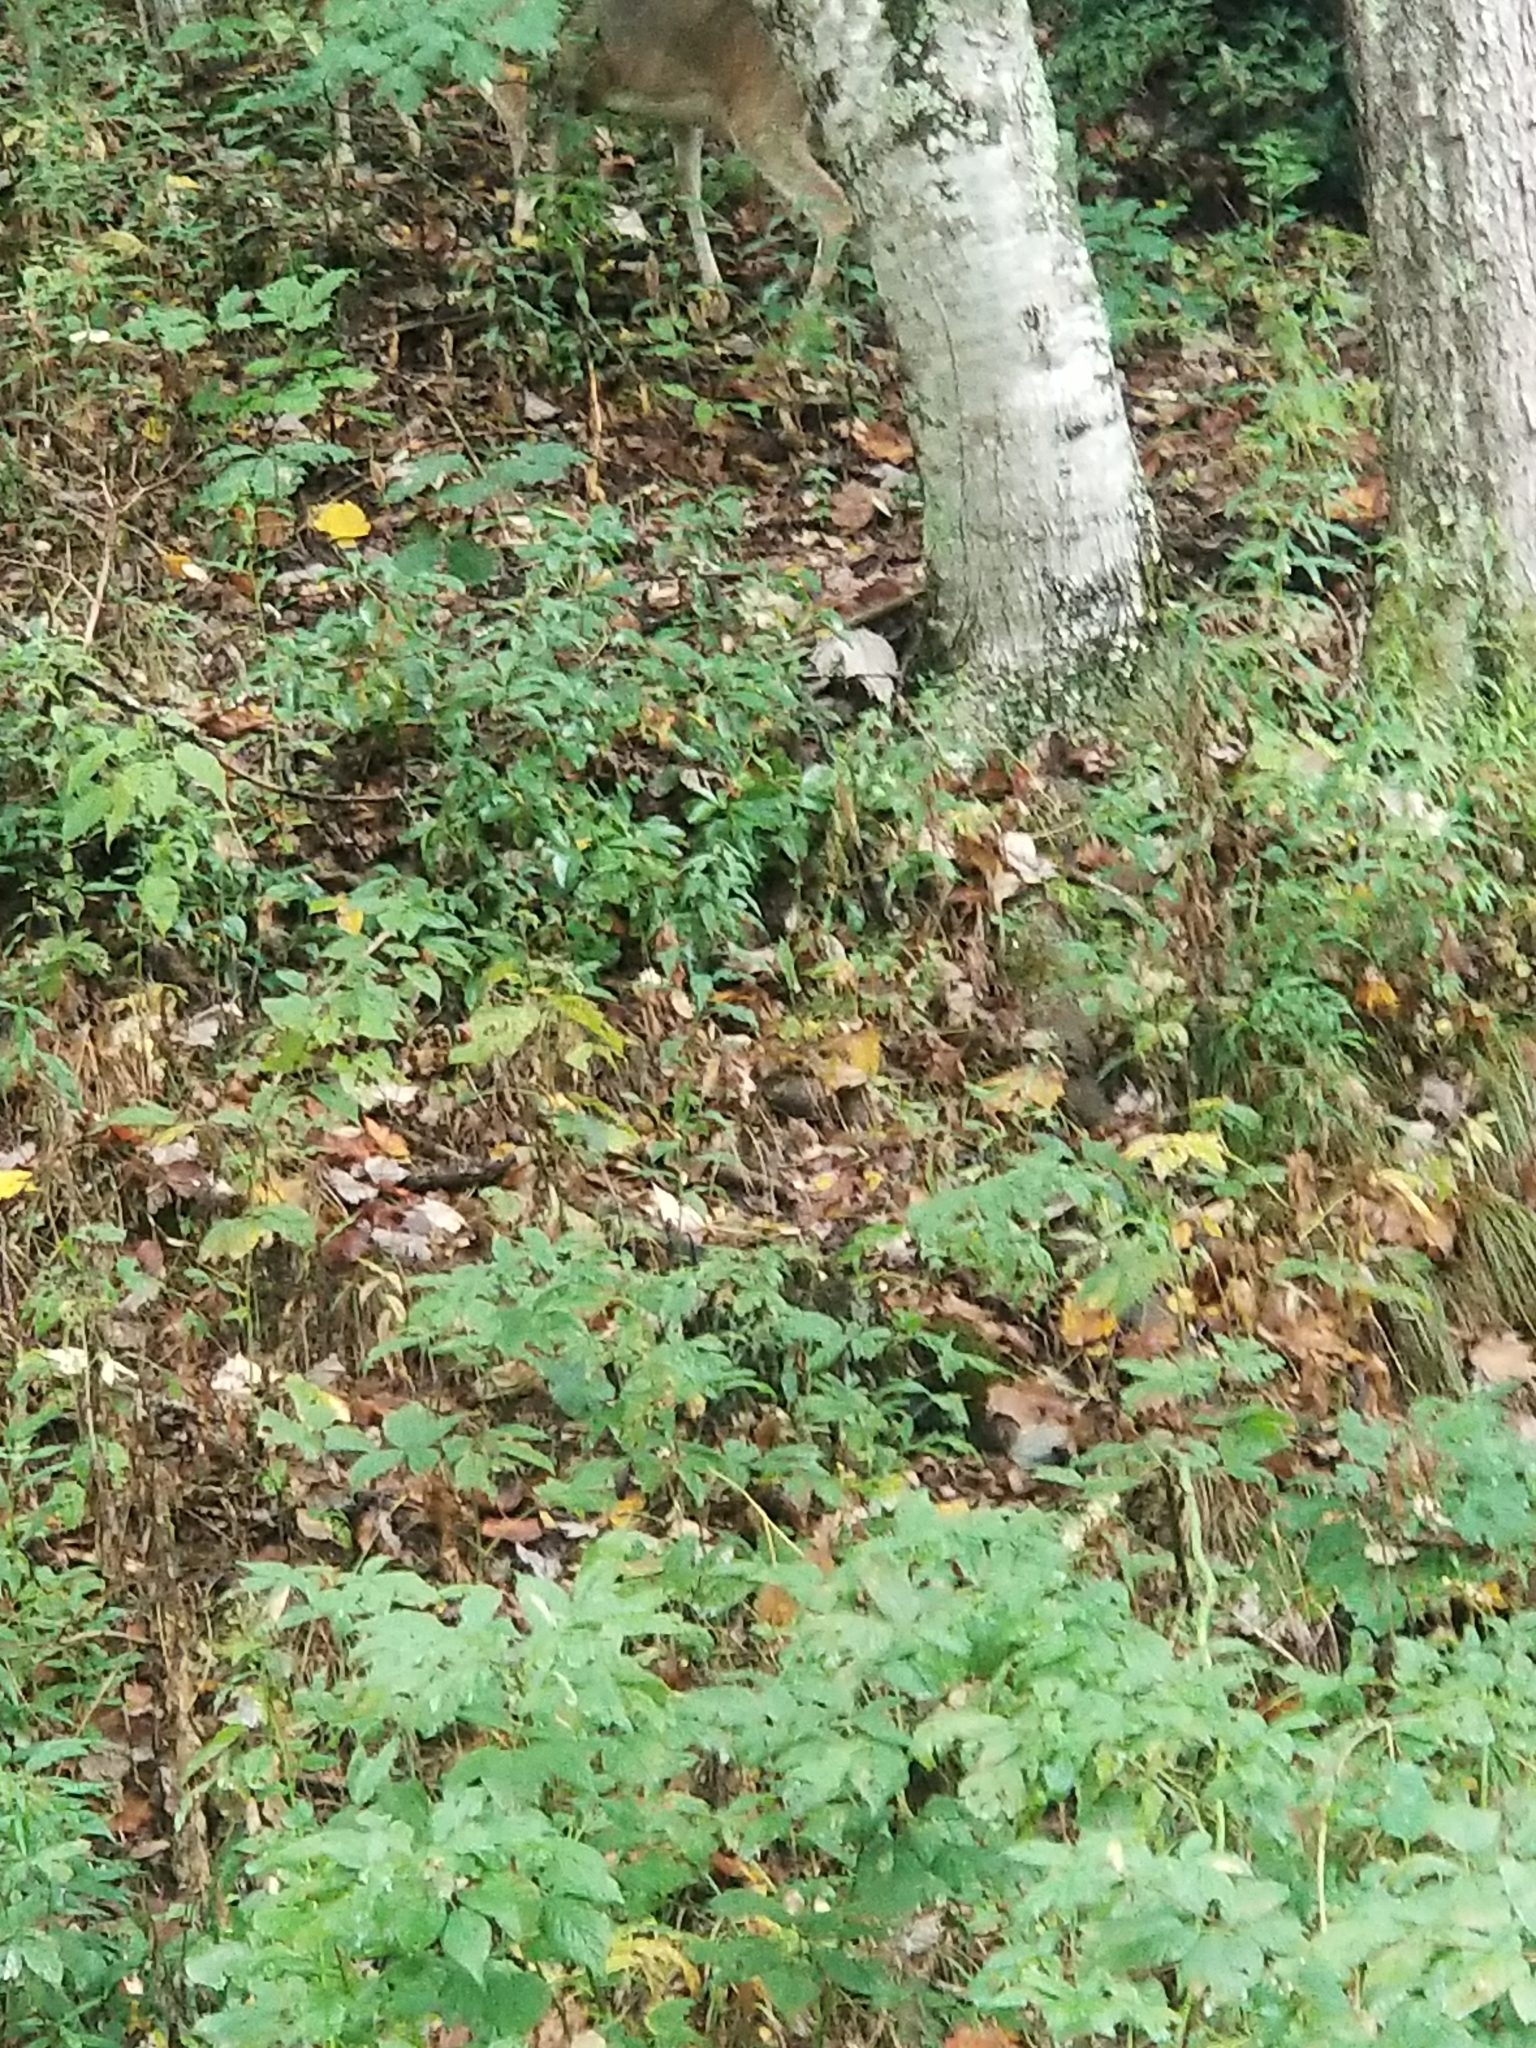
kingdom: Animalia
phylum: Chordata
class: Mammalia
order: Artiodactyla
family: Cervidae
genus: Odocoileus
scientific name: Odocoileus virginianus
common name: White-tailed deer
